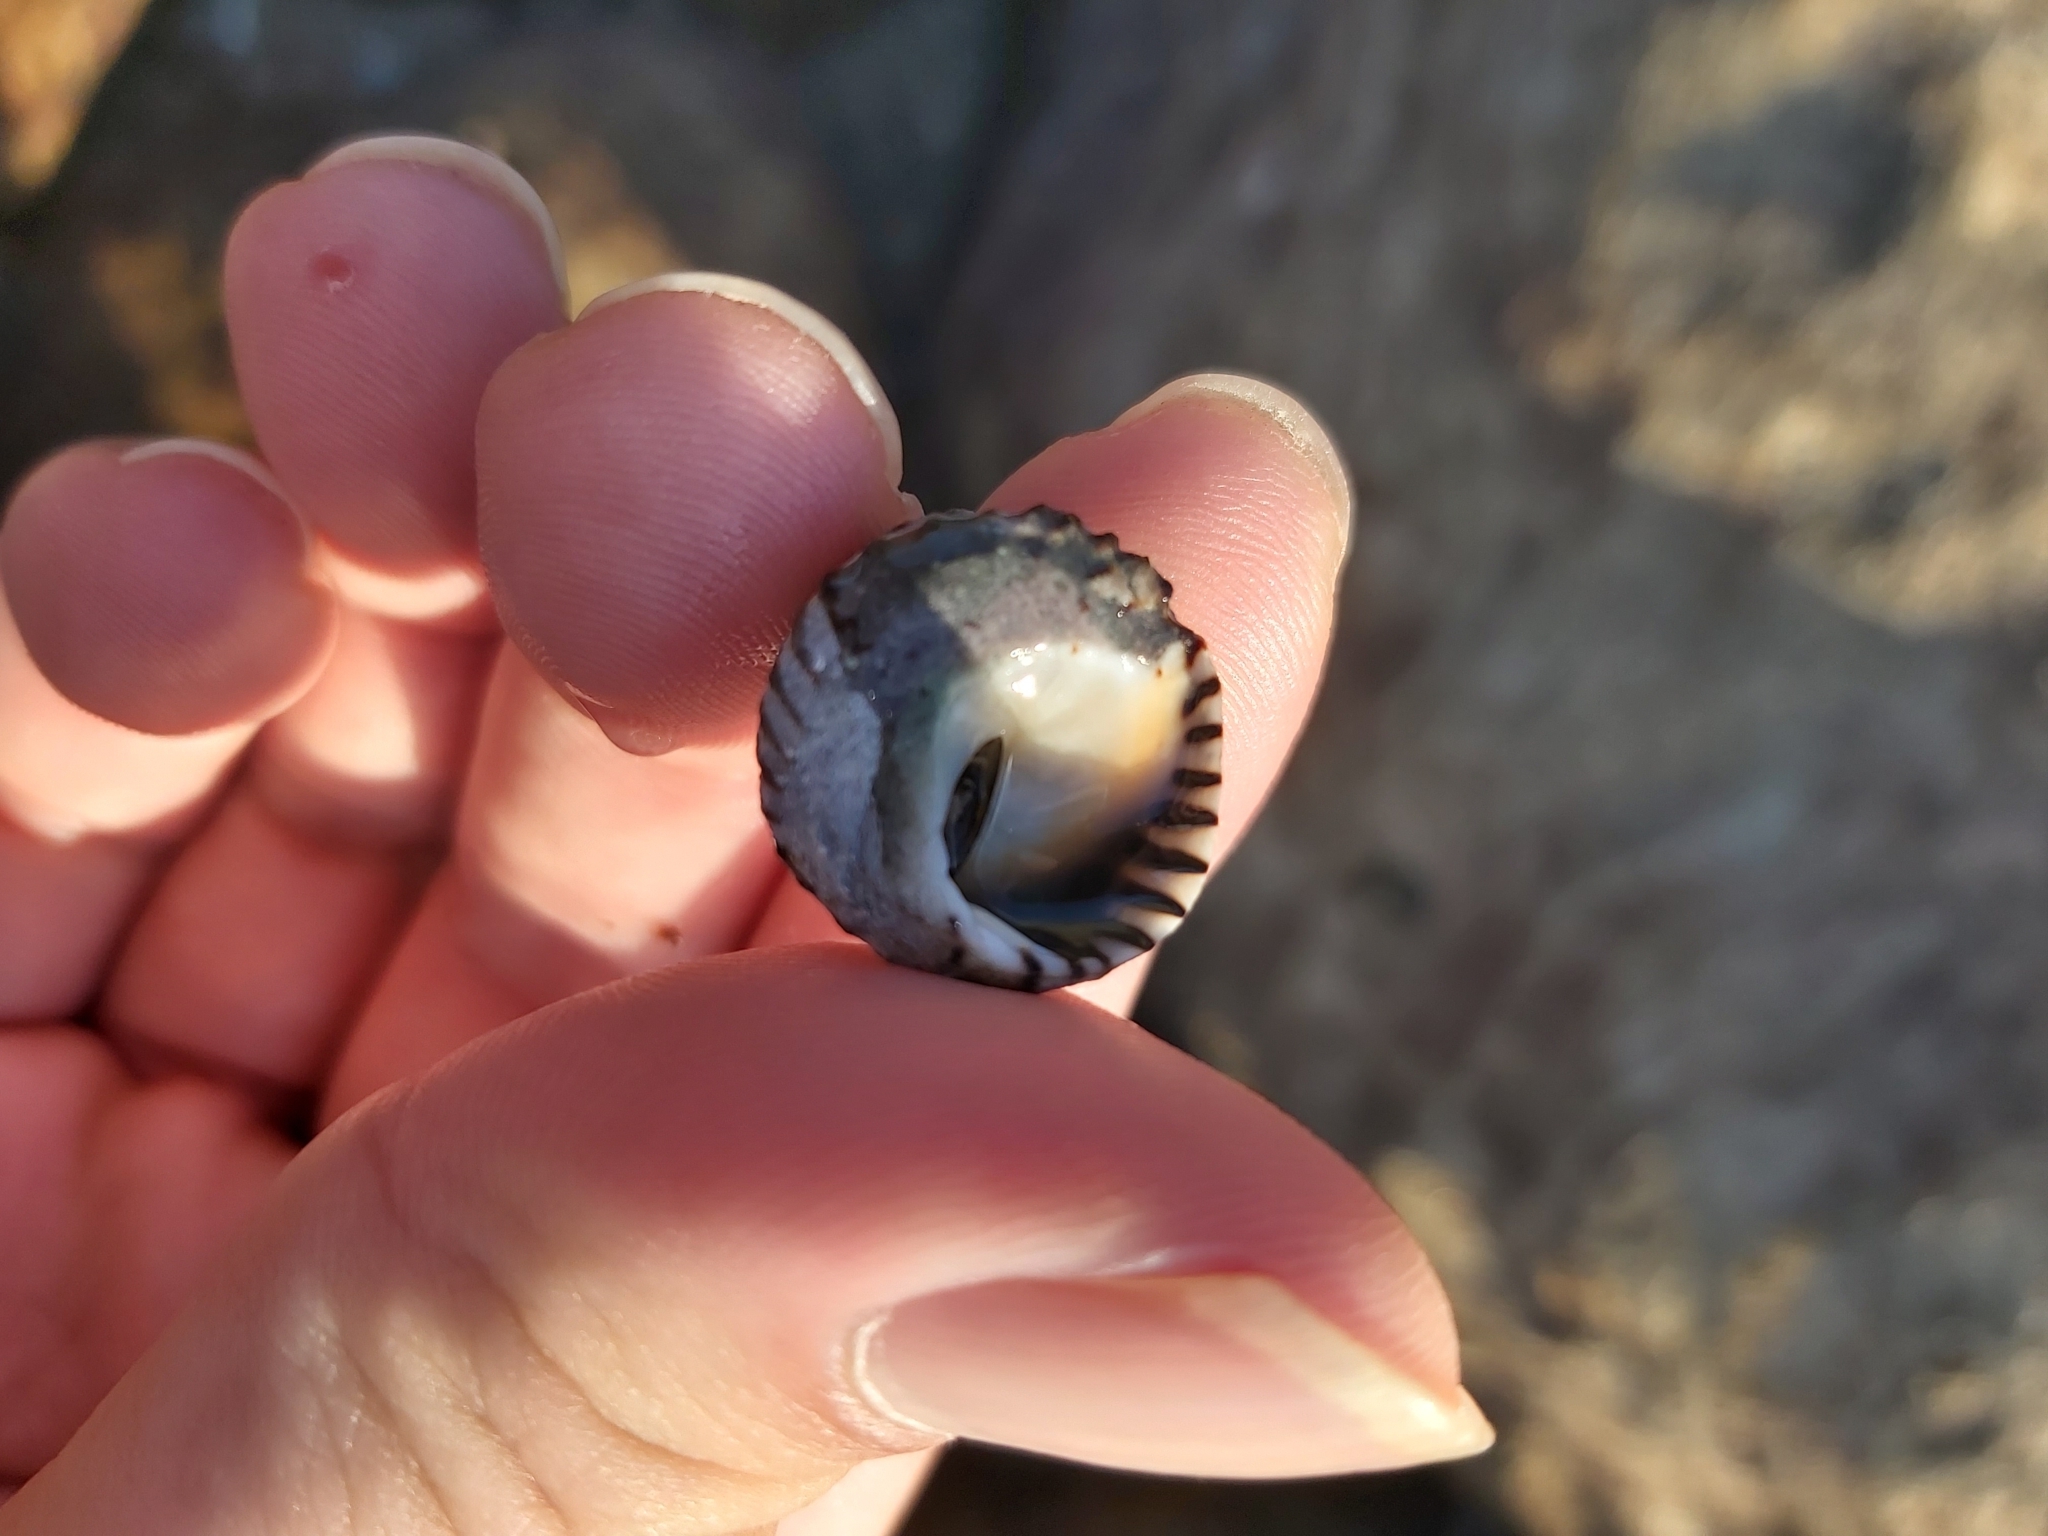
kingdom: Animalia
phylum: Mollusca
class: Gastropoda
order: Littorinimorpha
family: Littorinidae
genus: Bembicium
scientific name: Bembicium nanum
